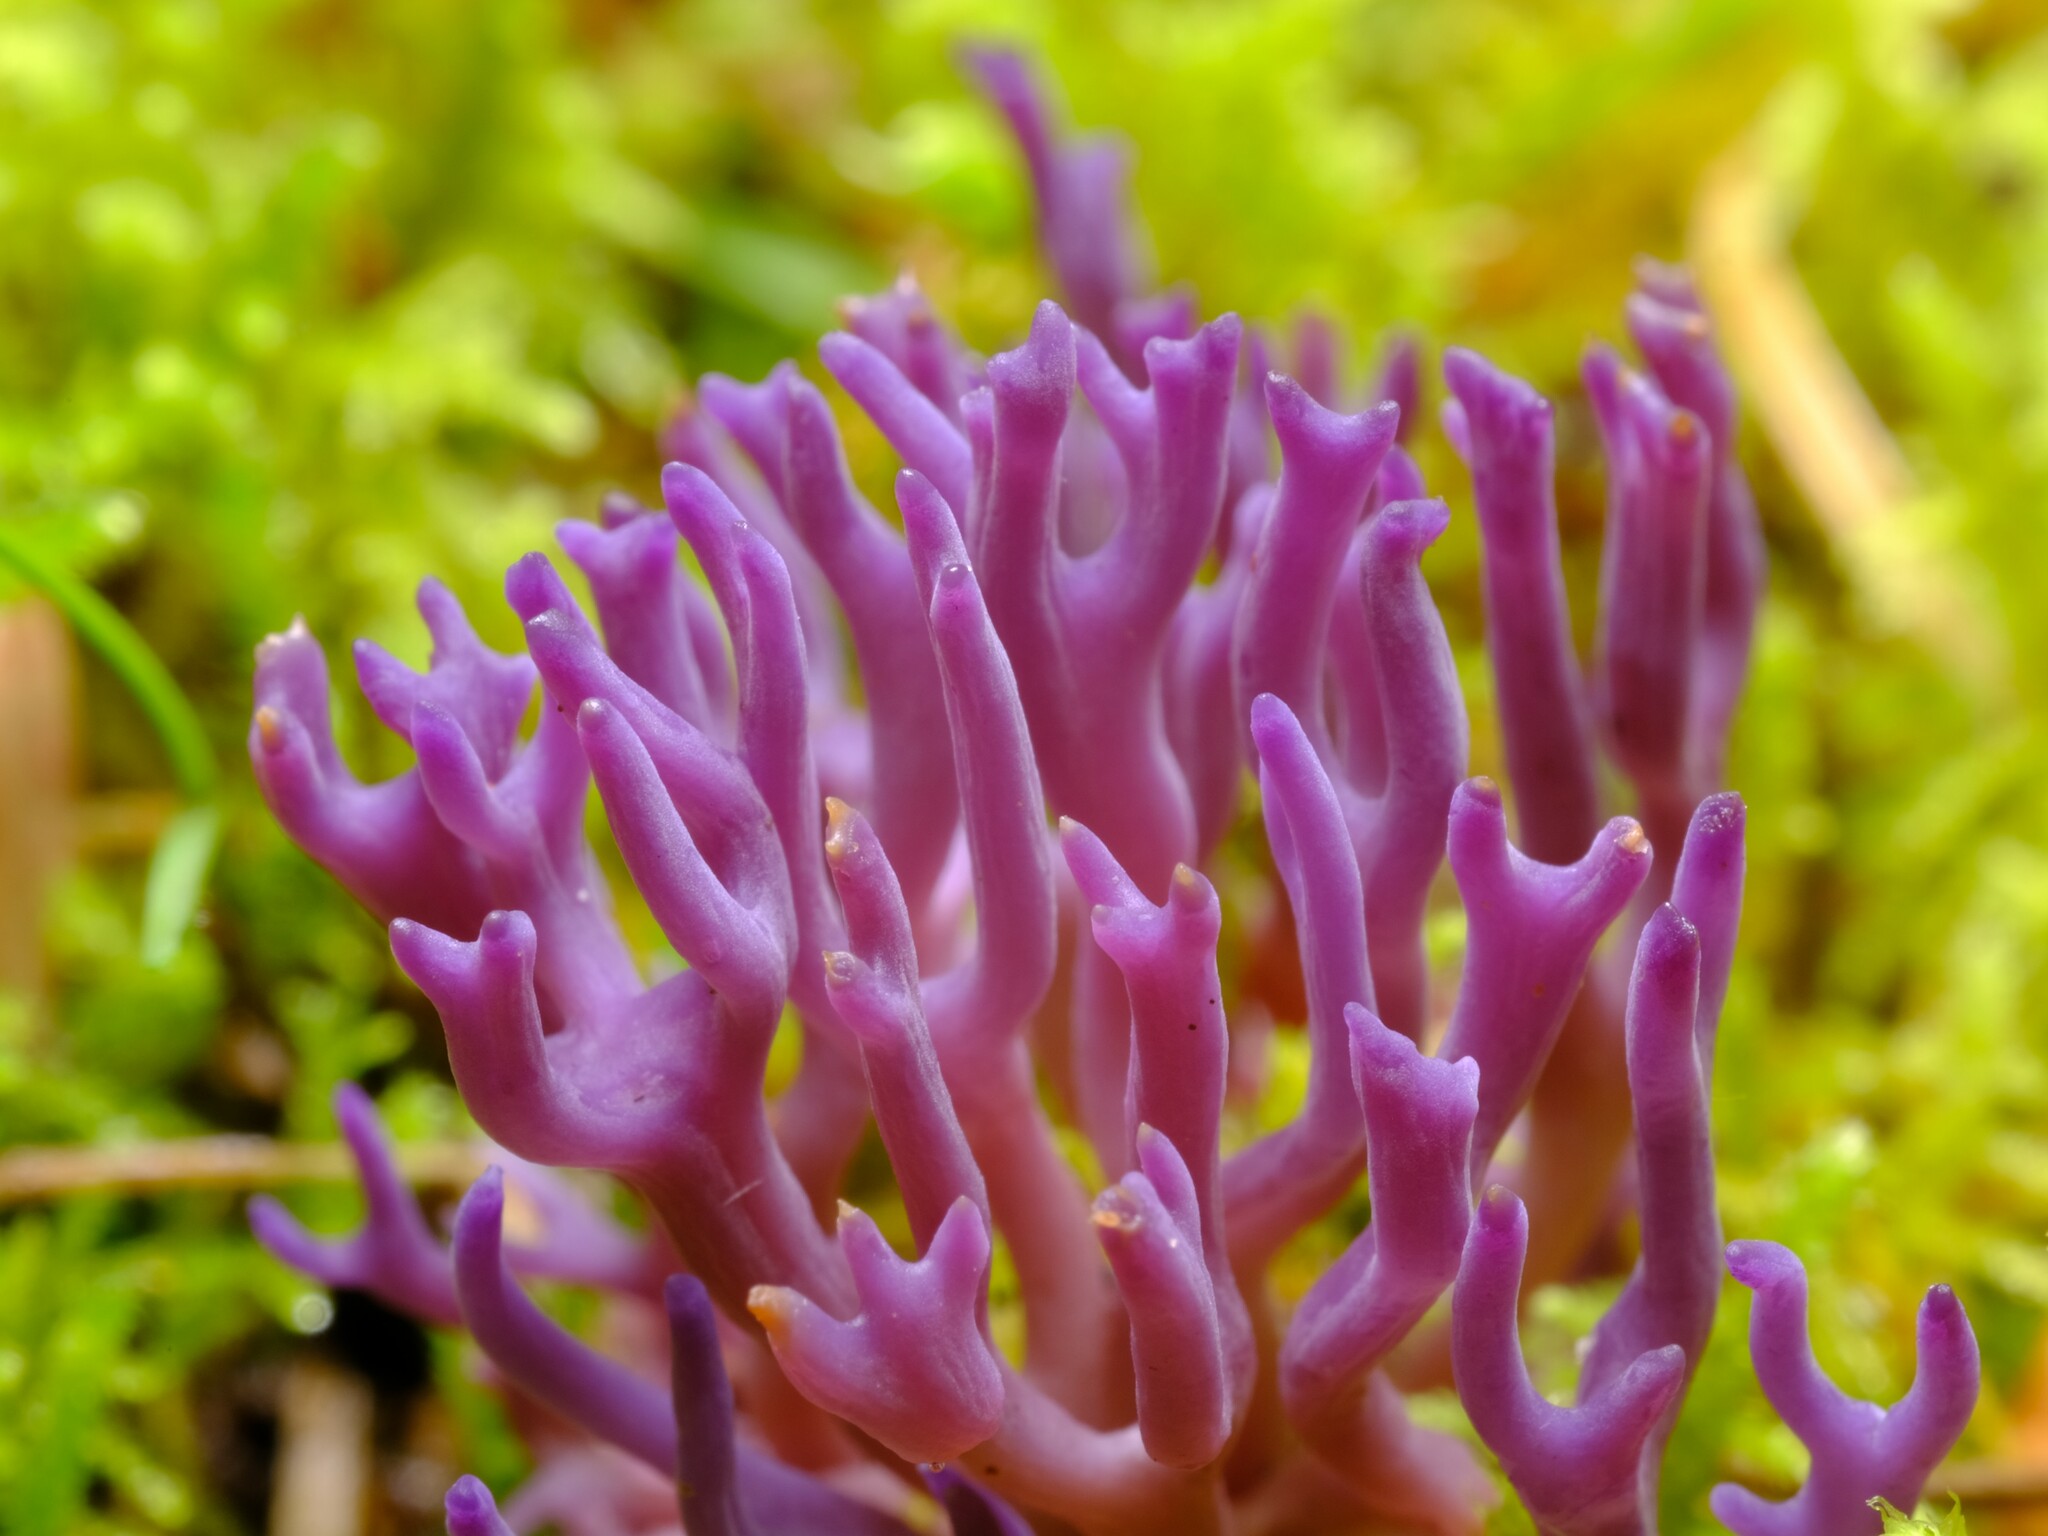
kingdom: Fungi
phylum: Basidiomycota
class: Agaricomycetes
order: Agaricales
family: Clavariaceae
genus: Ramariopsis
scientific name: Ramariopsis pulchella
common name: Lilac coral
